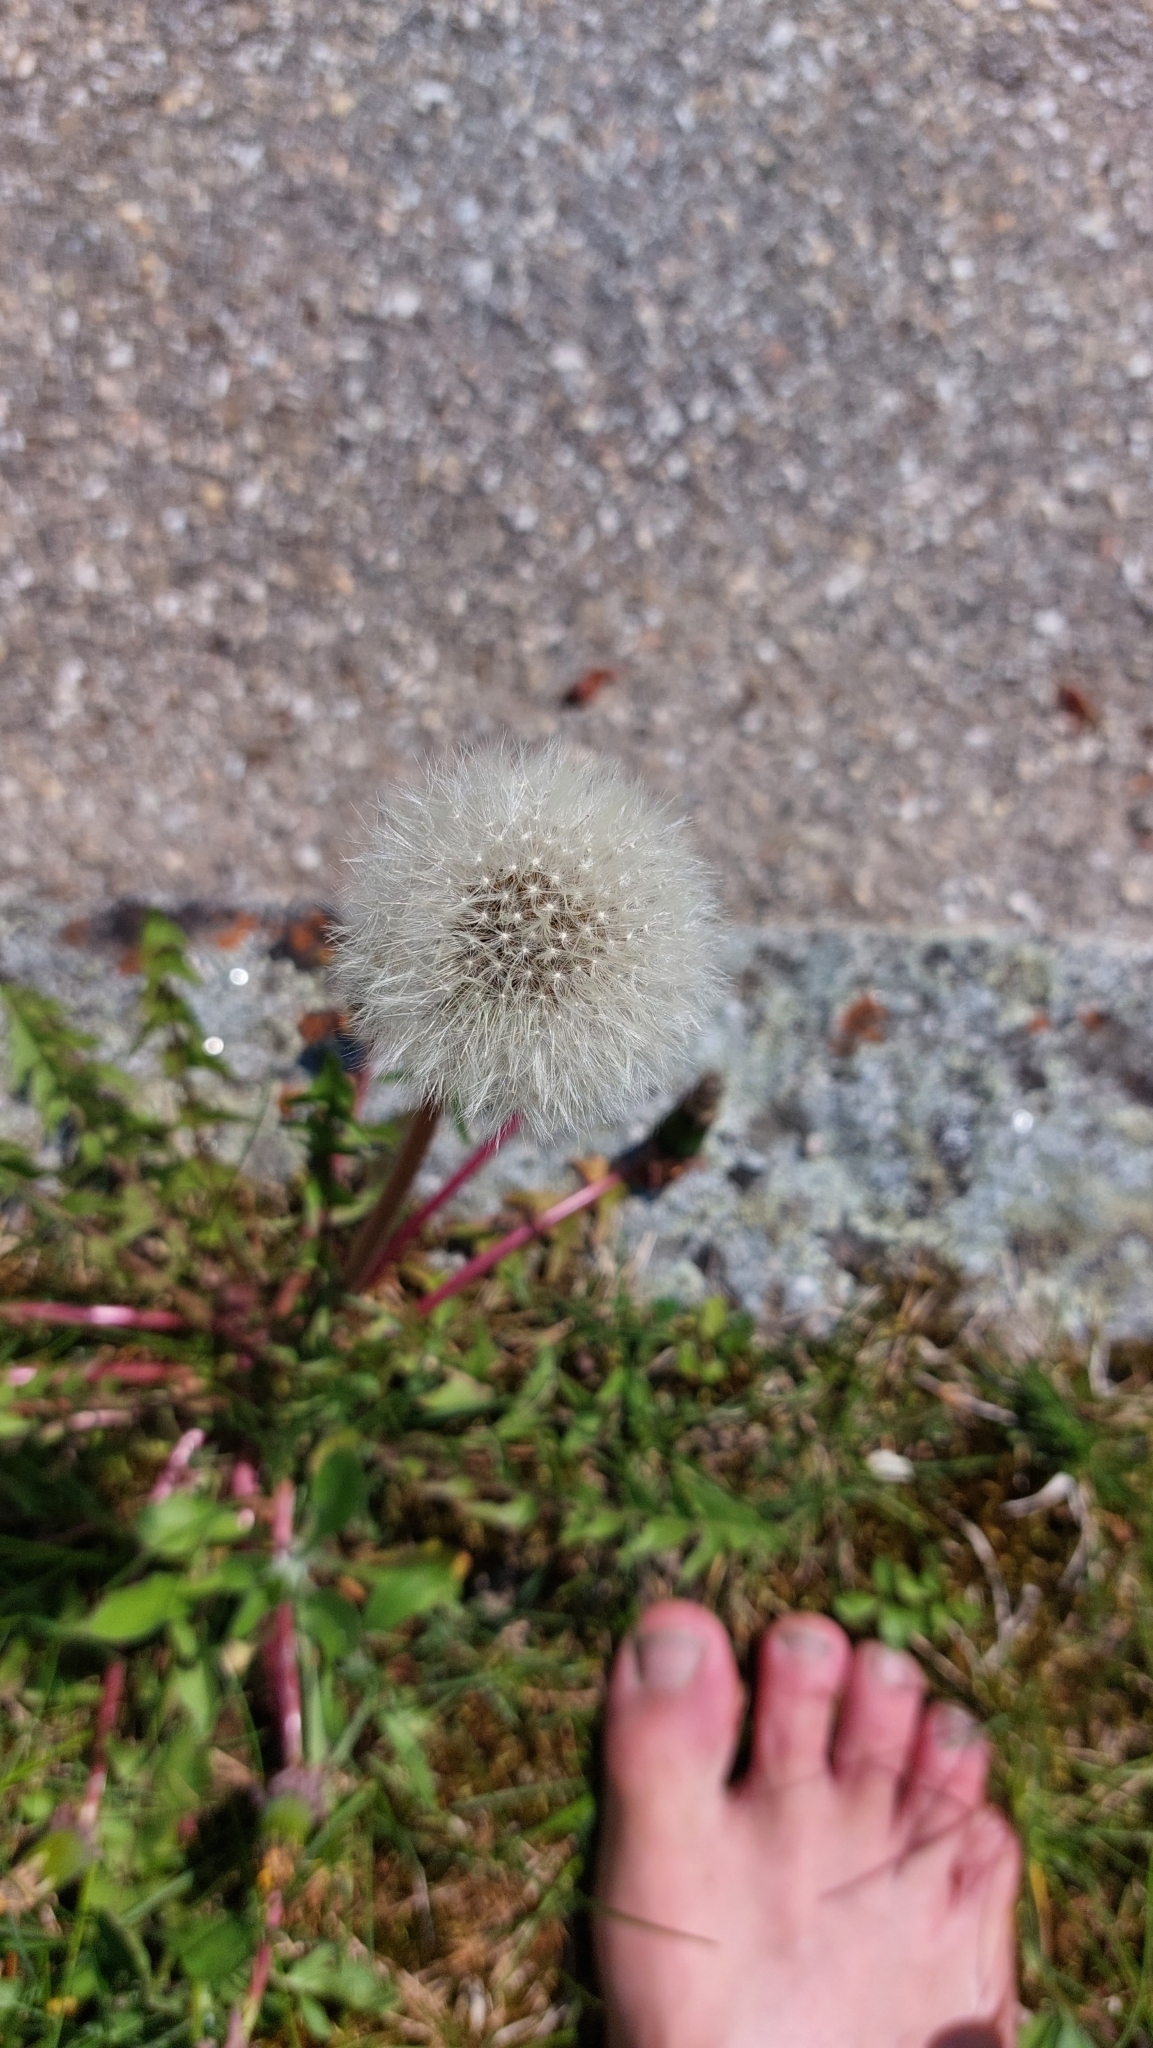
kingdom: Plantae
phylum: Tracheophyta
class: Magnoliopsida
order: Asterales
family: Asteraceae
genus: Taraxacum
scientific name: Taraxacum
